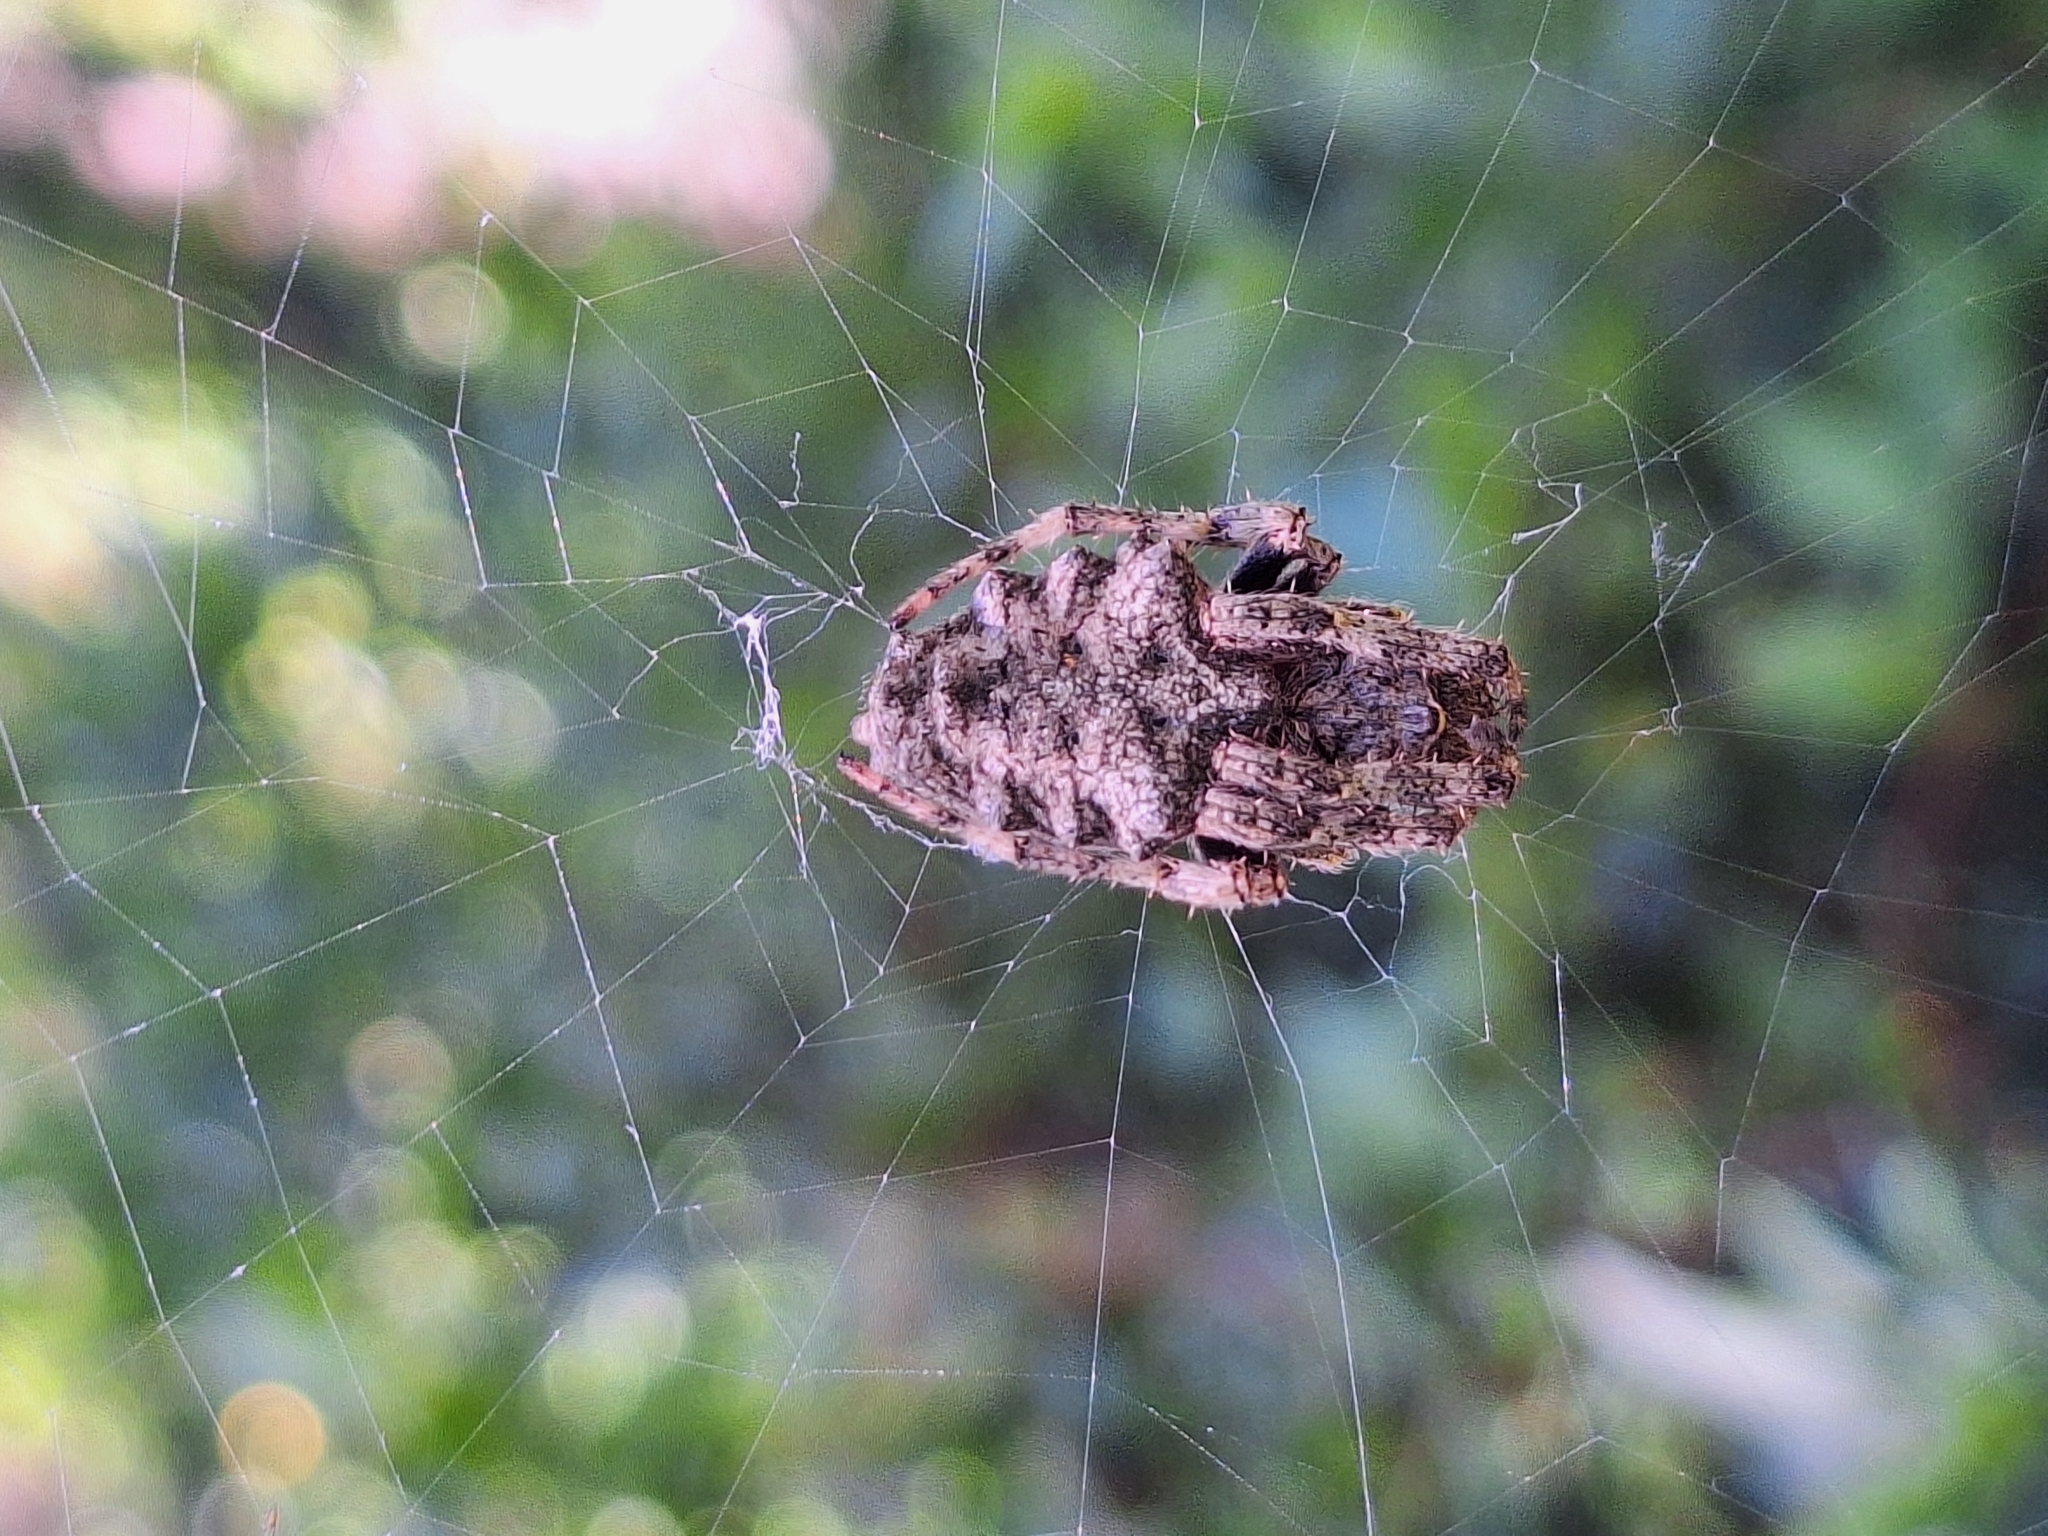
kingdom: Animalia
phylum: Arthropoda
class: Arachnida
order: Araneae
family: Araneidae
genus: Parawixia
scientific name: Parawixia audax
